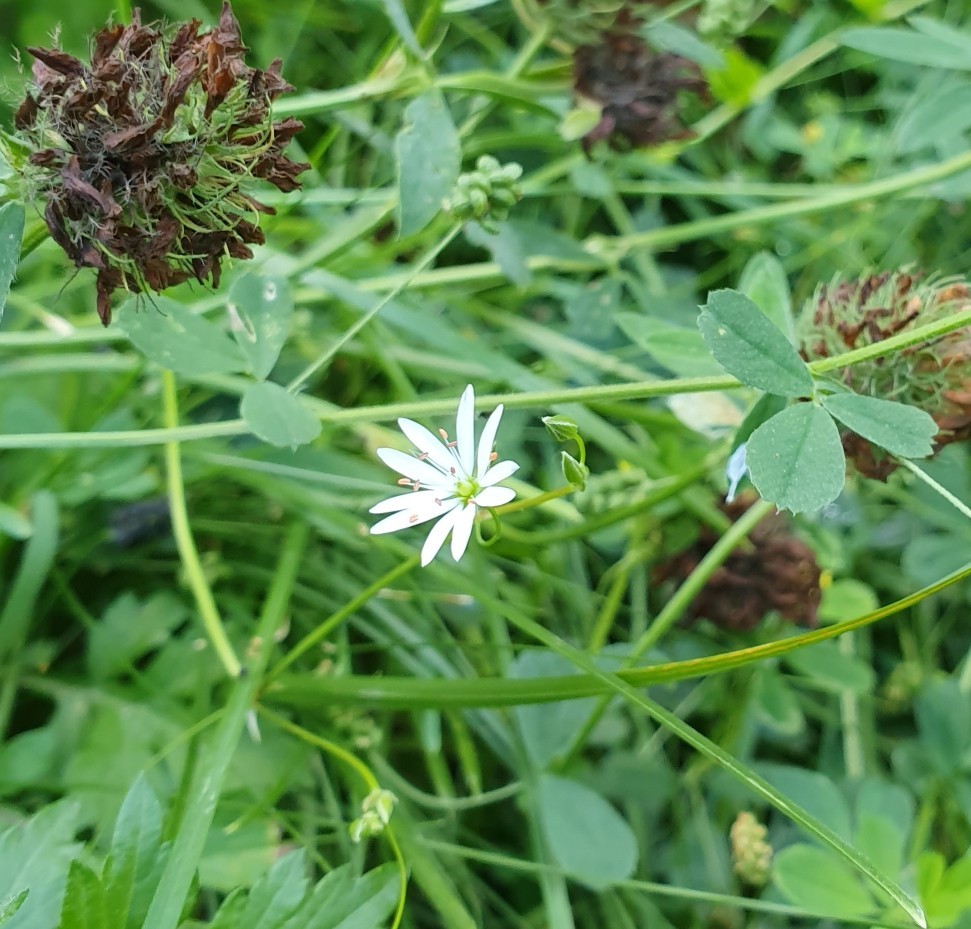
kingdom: Plantae
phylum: Tracheophyta
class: Magnoliopsida
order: Caryophyllales
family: Caryophyllaceae
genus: Stellaria
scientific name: Stellaria graminea
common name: Grass-like starwort
